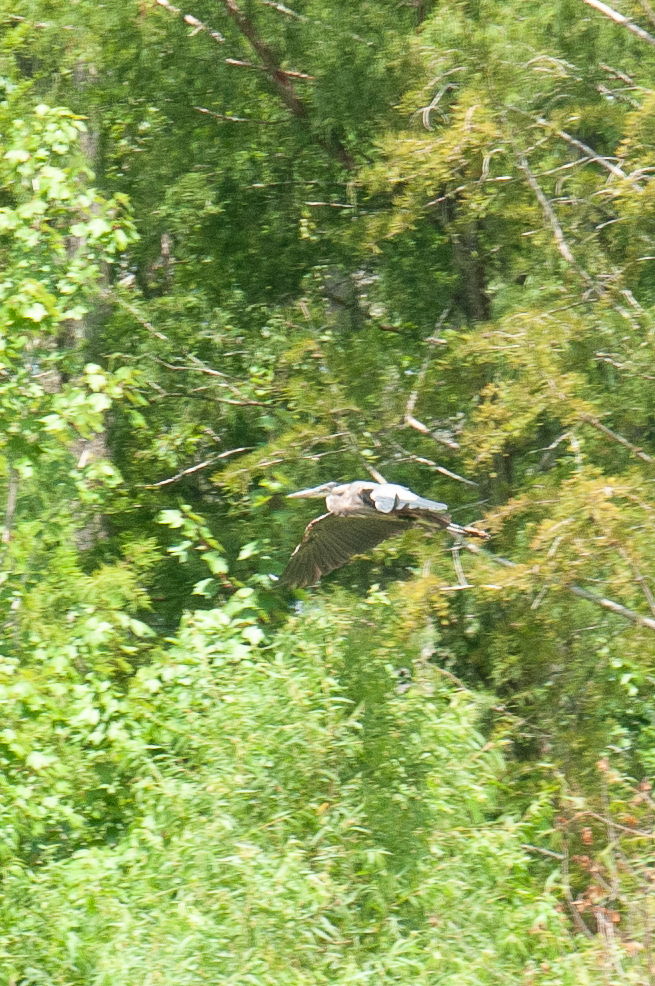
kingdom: Animalia
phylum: Chordata
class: Aves
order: Pelecaniformes
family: Ardeidae
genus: Ardea
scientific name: Ardea herodias
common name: Great blue heron
